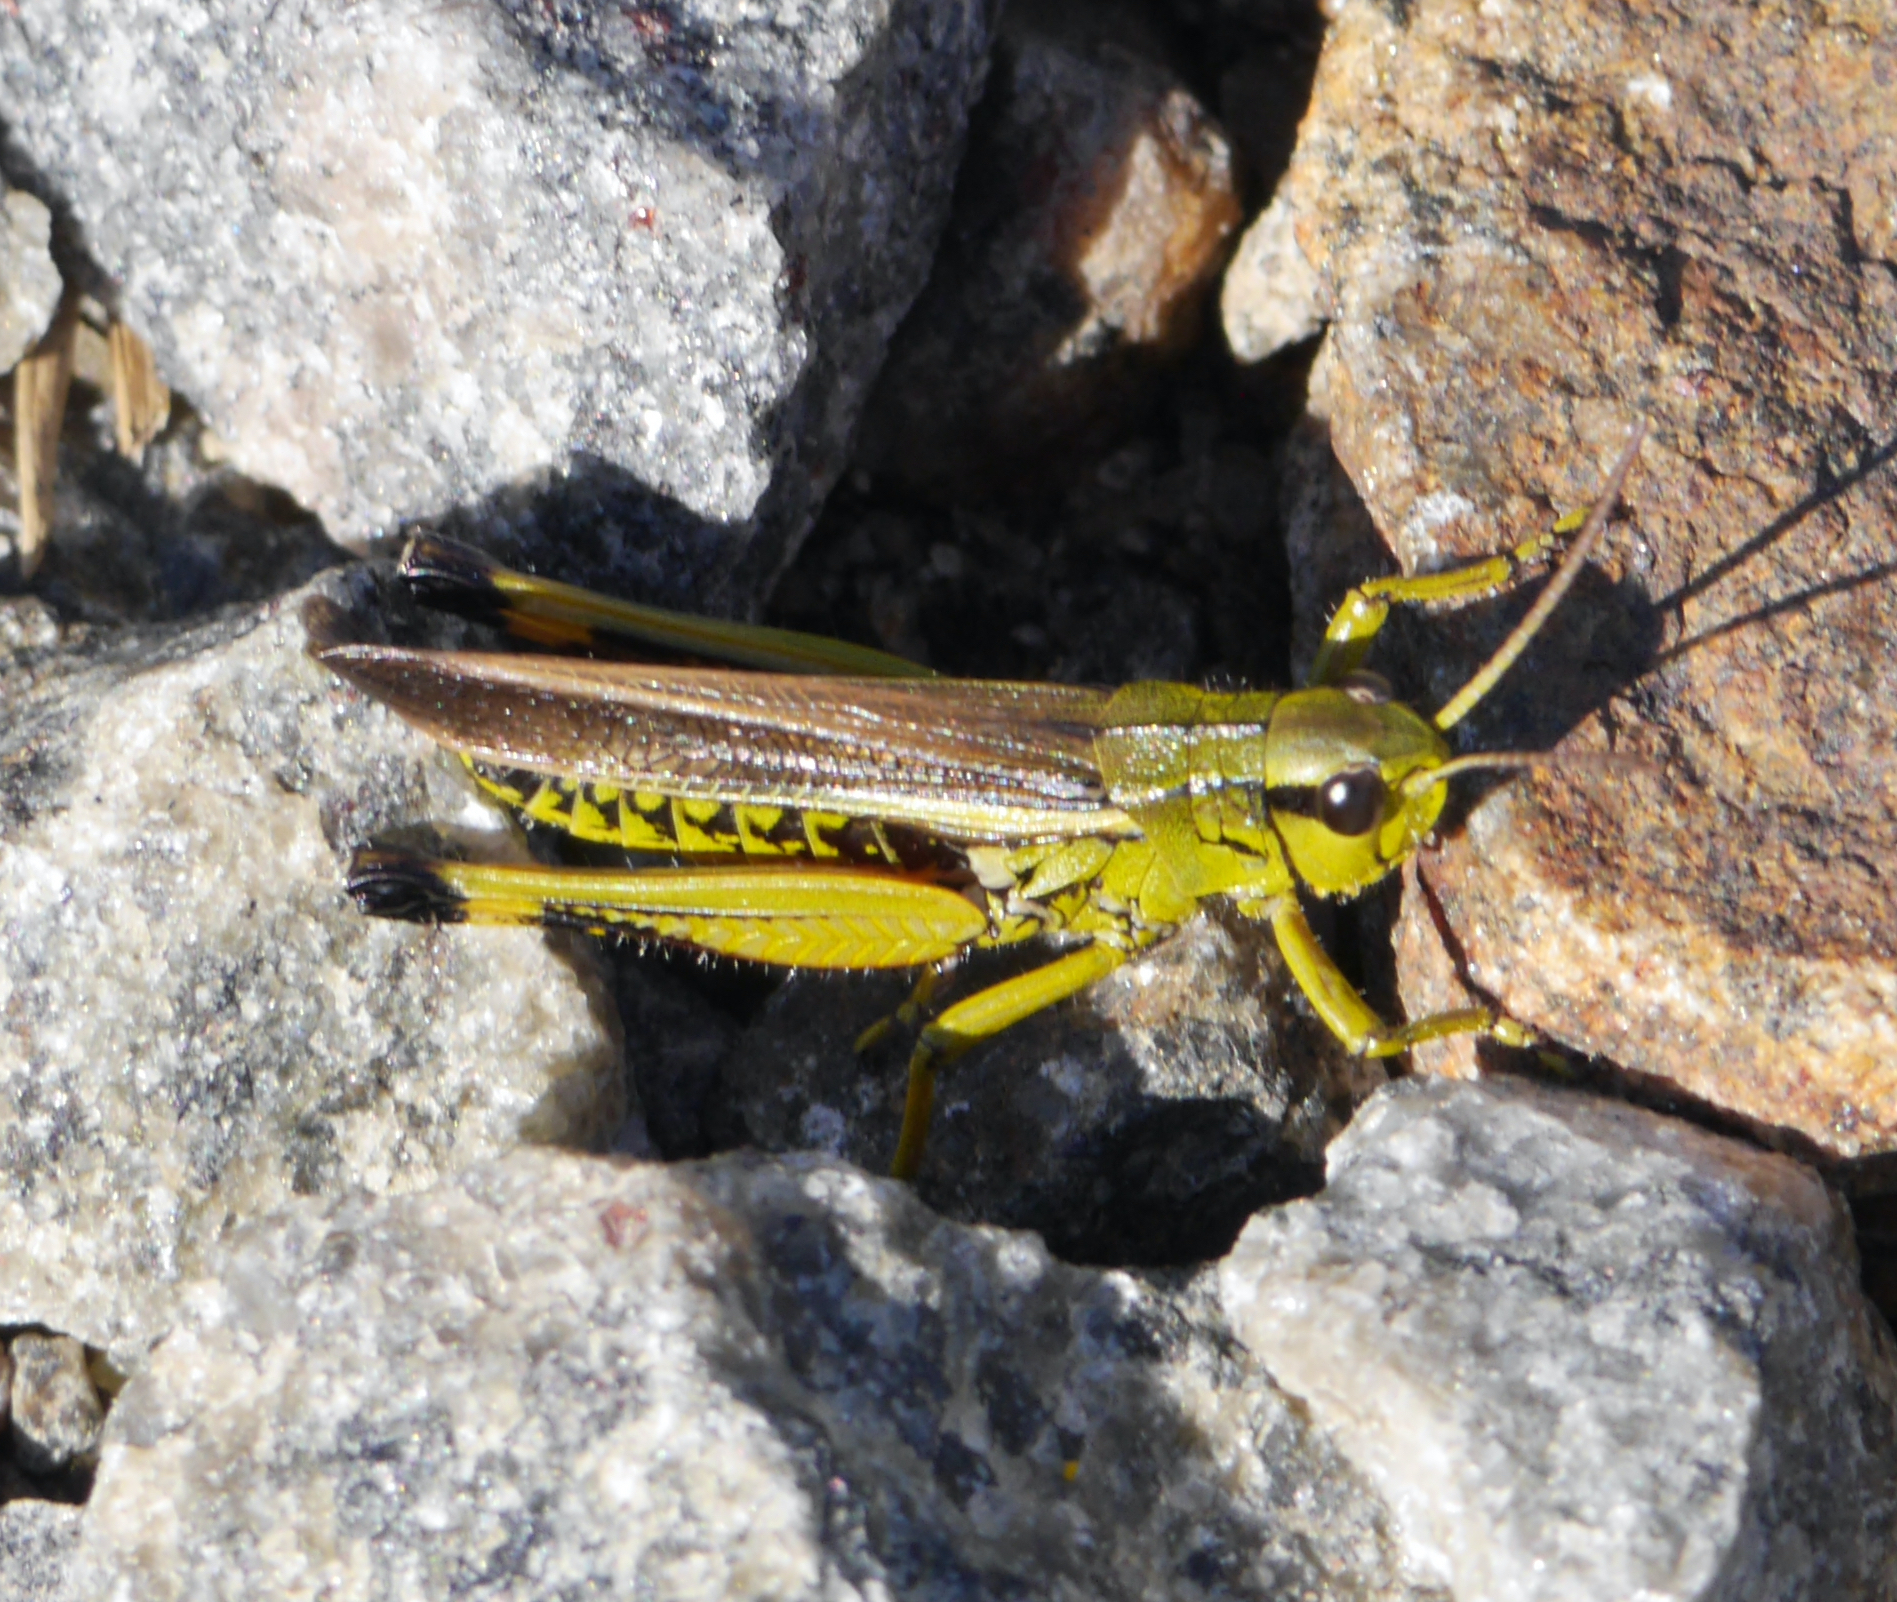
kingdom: Animalia
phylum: Arthropoda
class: Insecta
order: Orthoptera
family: Acrididae
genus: Stethophyma
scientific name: Stethophyma grossum
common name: Large marsh grasshopper
